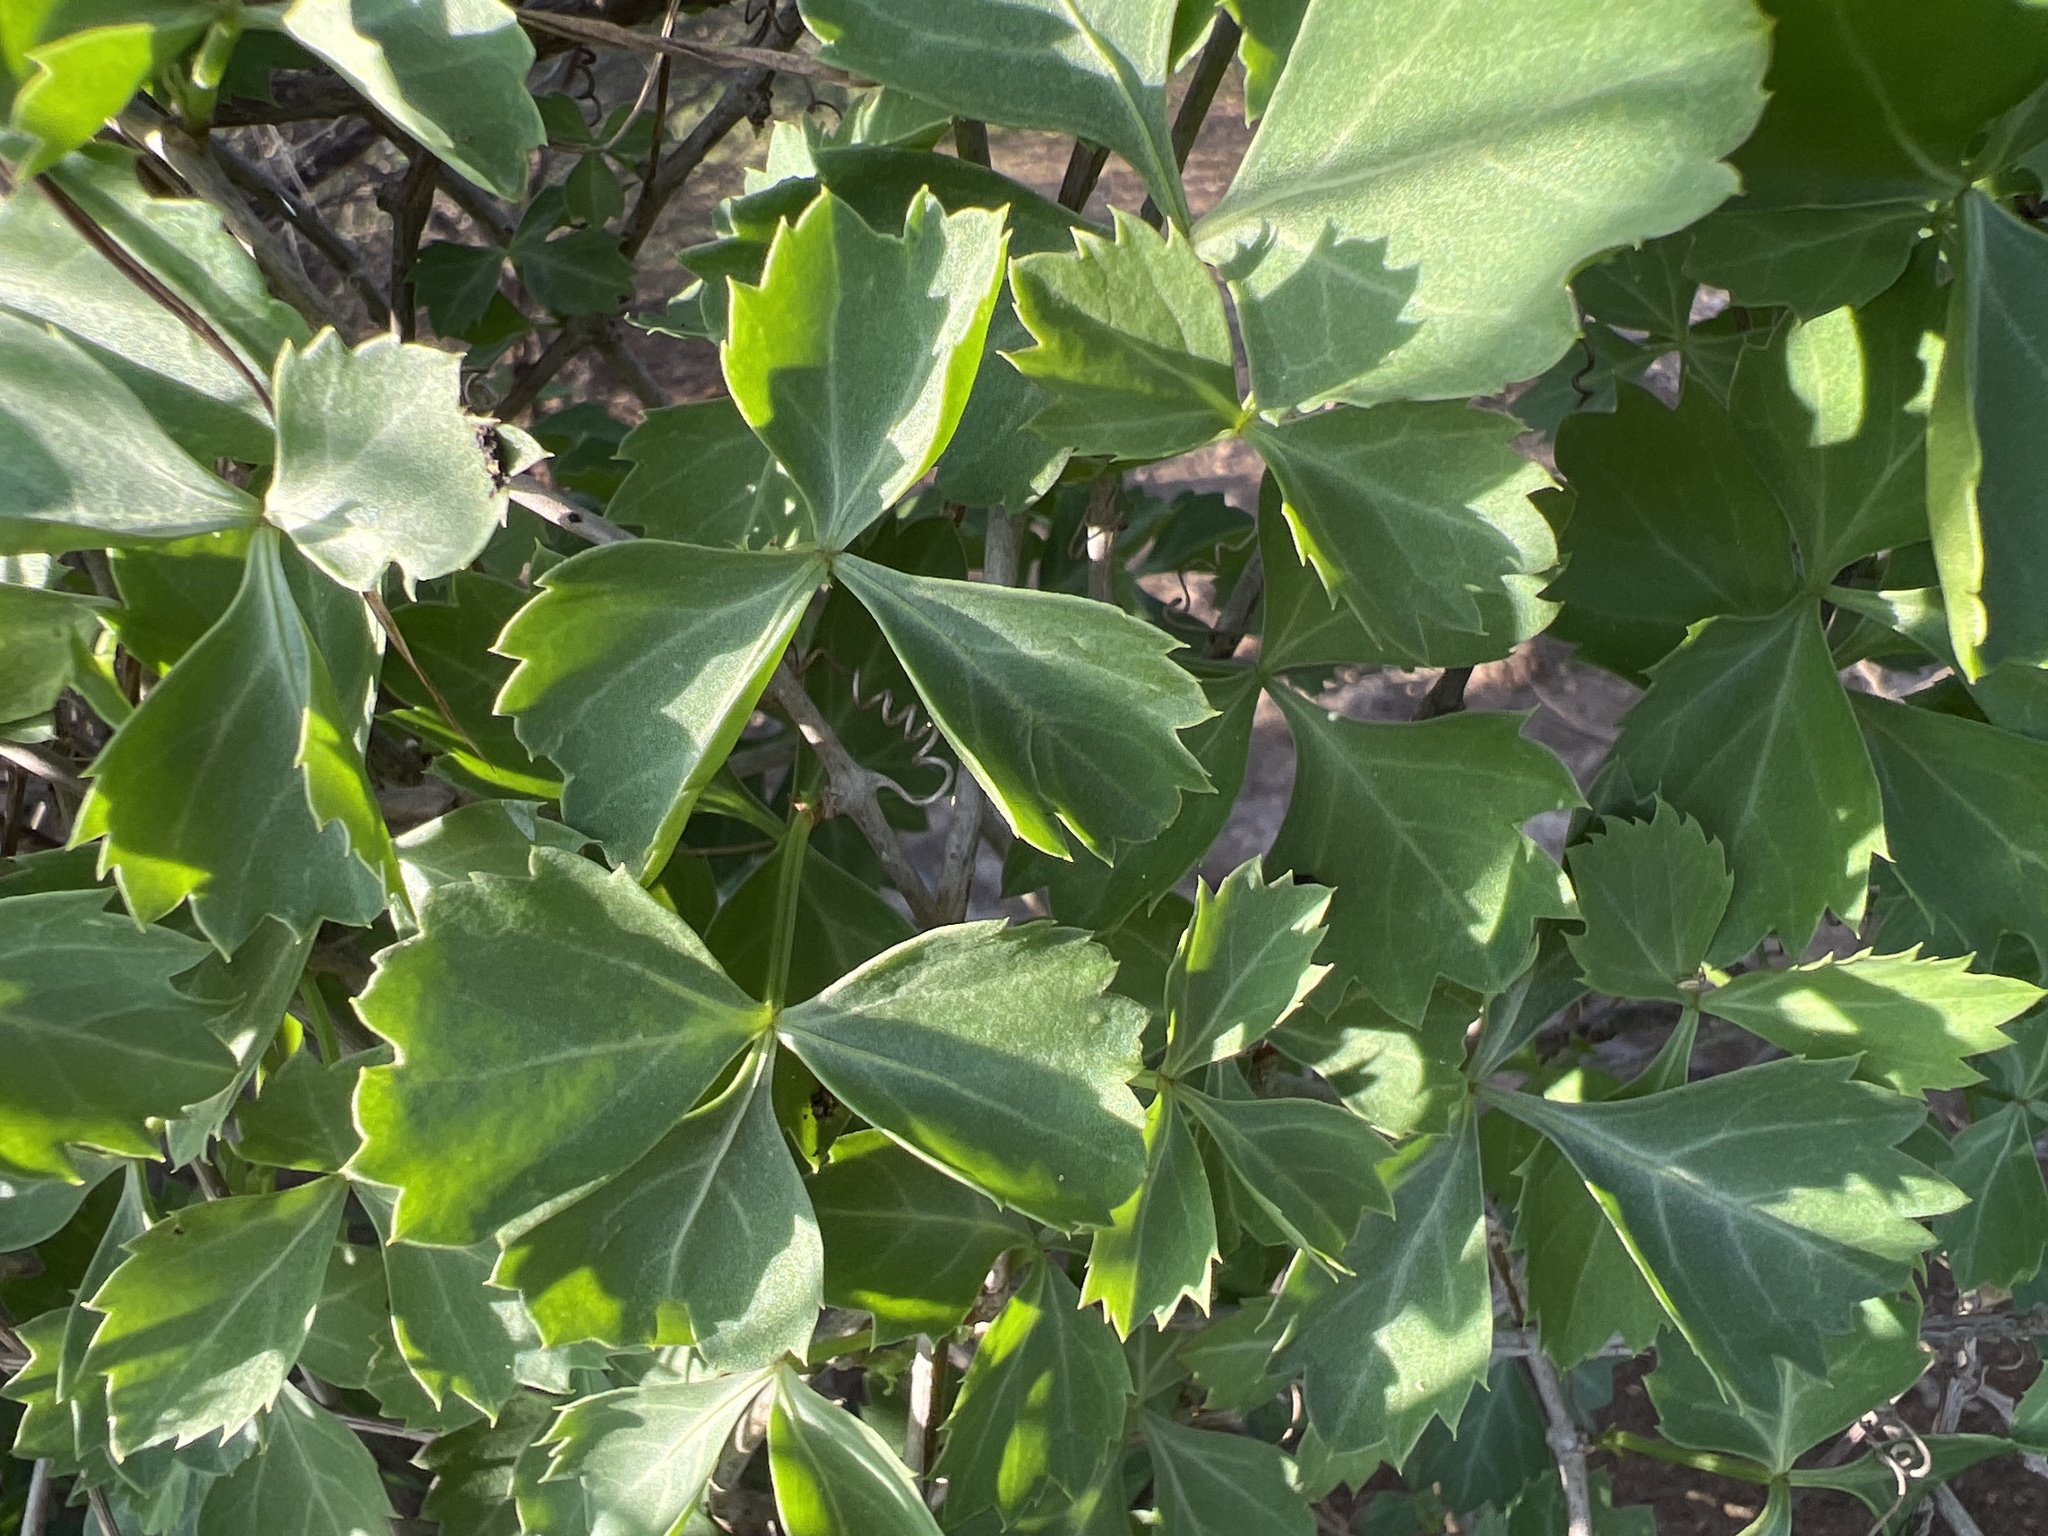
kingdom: Plantae
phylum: Tracheophyta
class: Magnoliopsida
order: Vitales
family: Vitaceae
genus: Cissus
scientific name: Cissus trifoliata
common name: Vine-sorrel
